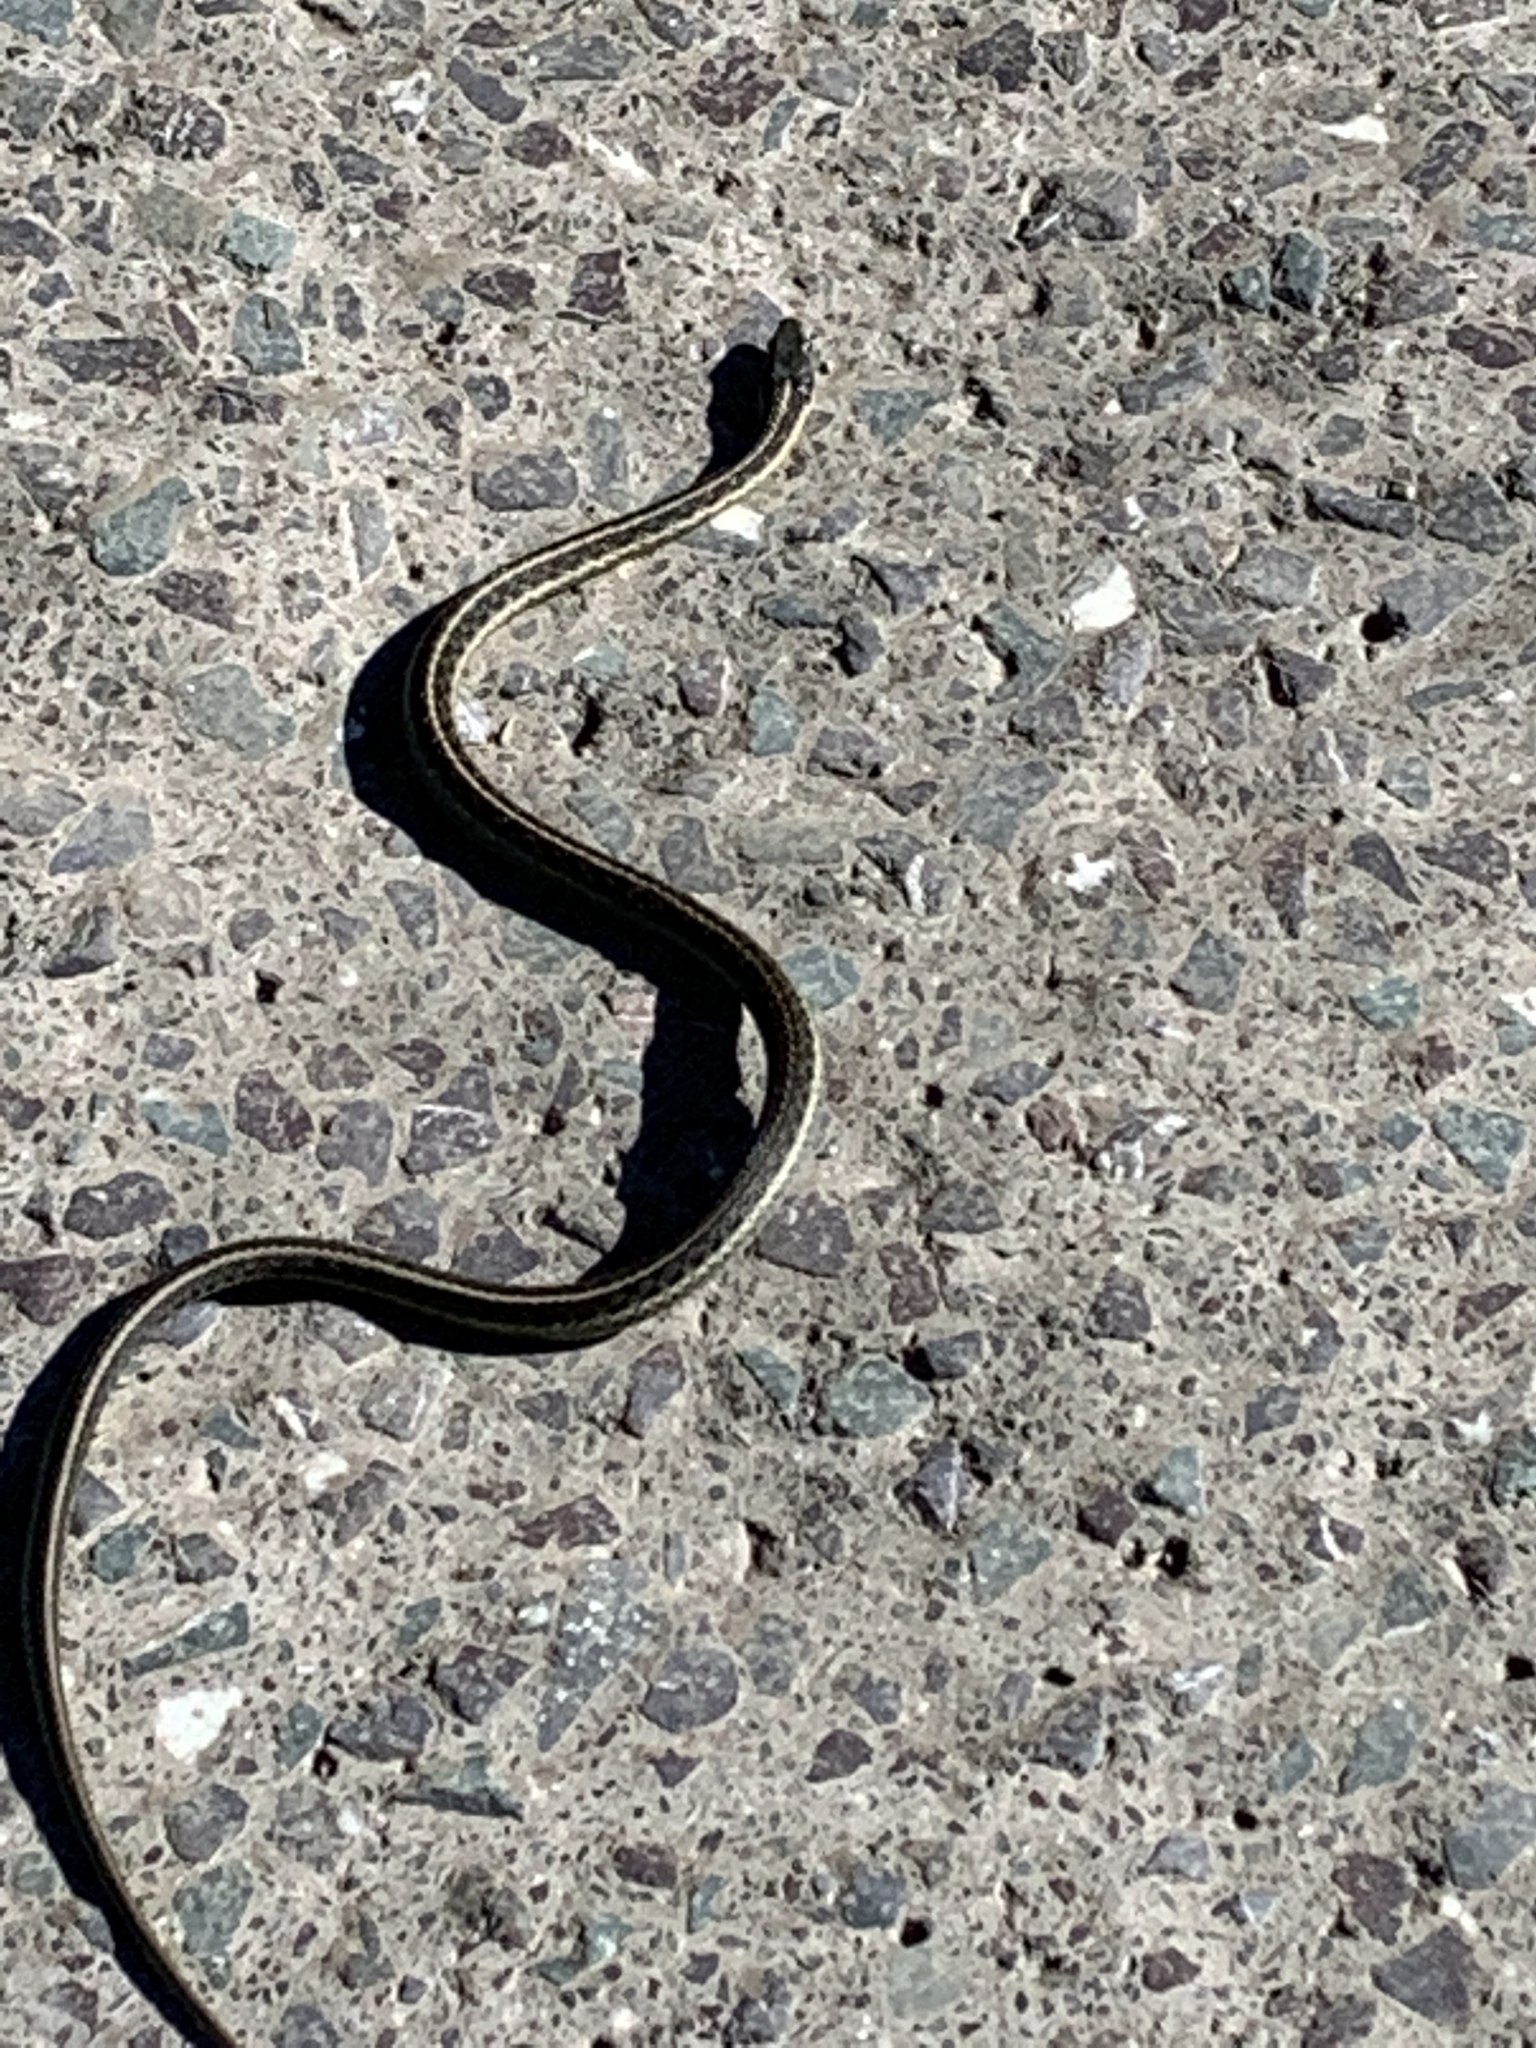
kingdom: Animalia
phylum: Chordata
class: Squamata
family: Colubridae
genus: Thamnophis
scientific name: Thamnophis atratus
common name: Pacific coast aquatic garter snake
